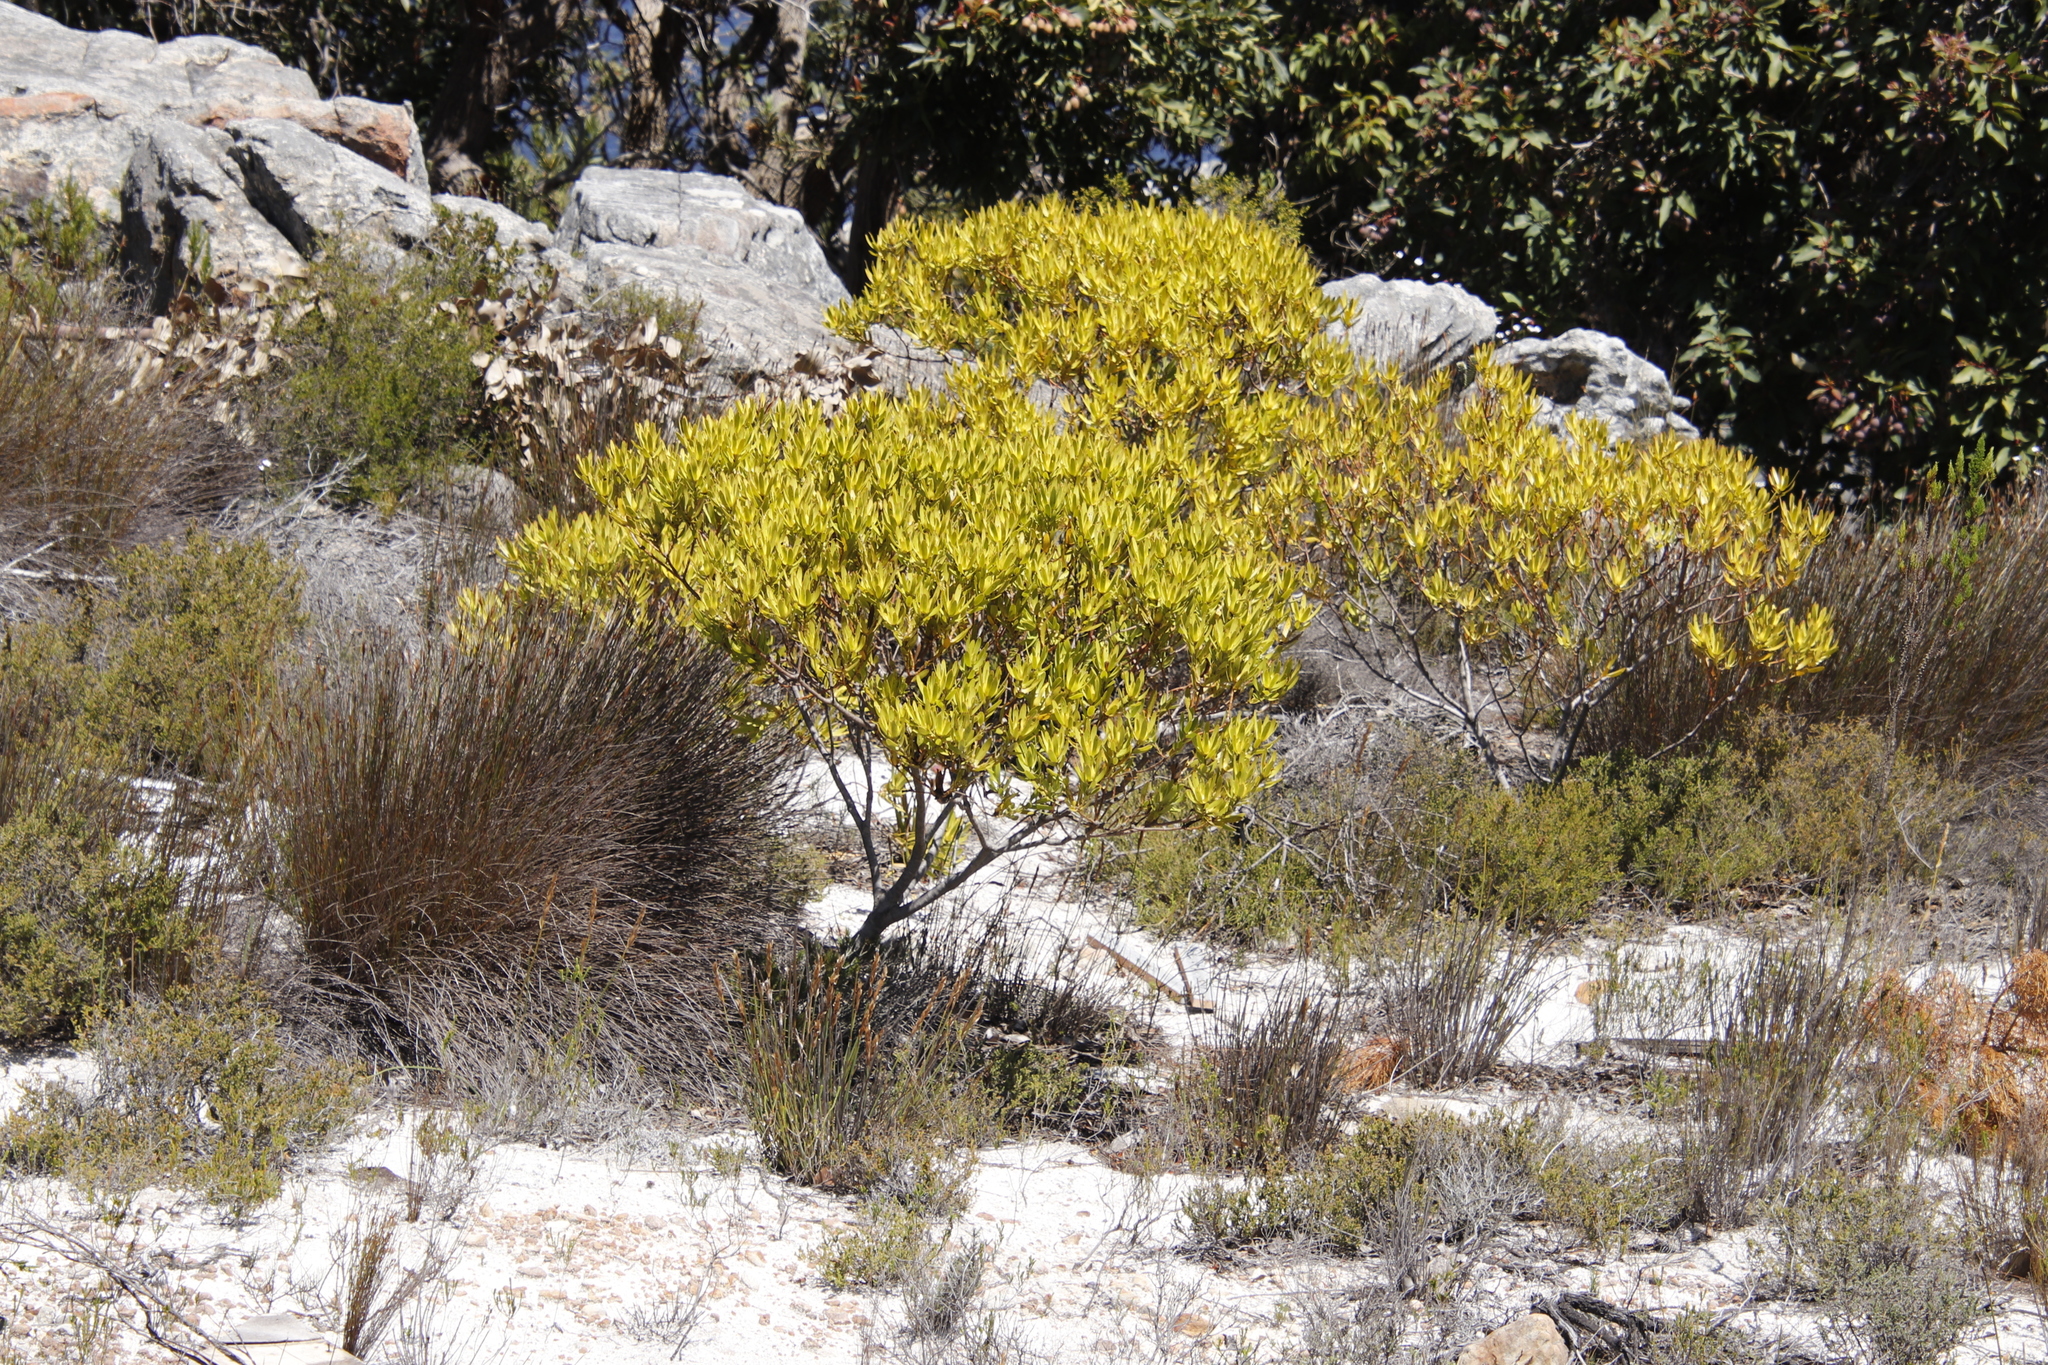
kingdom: Plantae
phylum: Tracheophyta
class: Magnoliopsida
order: Proteales
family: Proteaceae
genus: Leucadendron
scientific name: Leucadendron microcephalum
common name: Oilbract conebush
